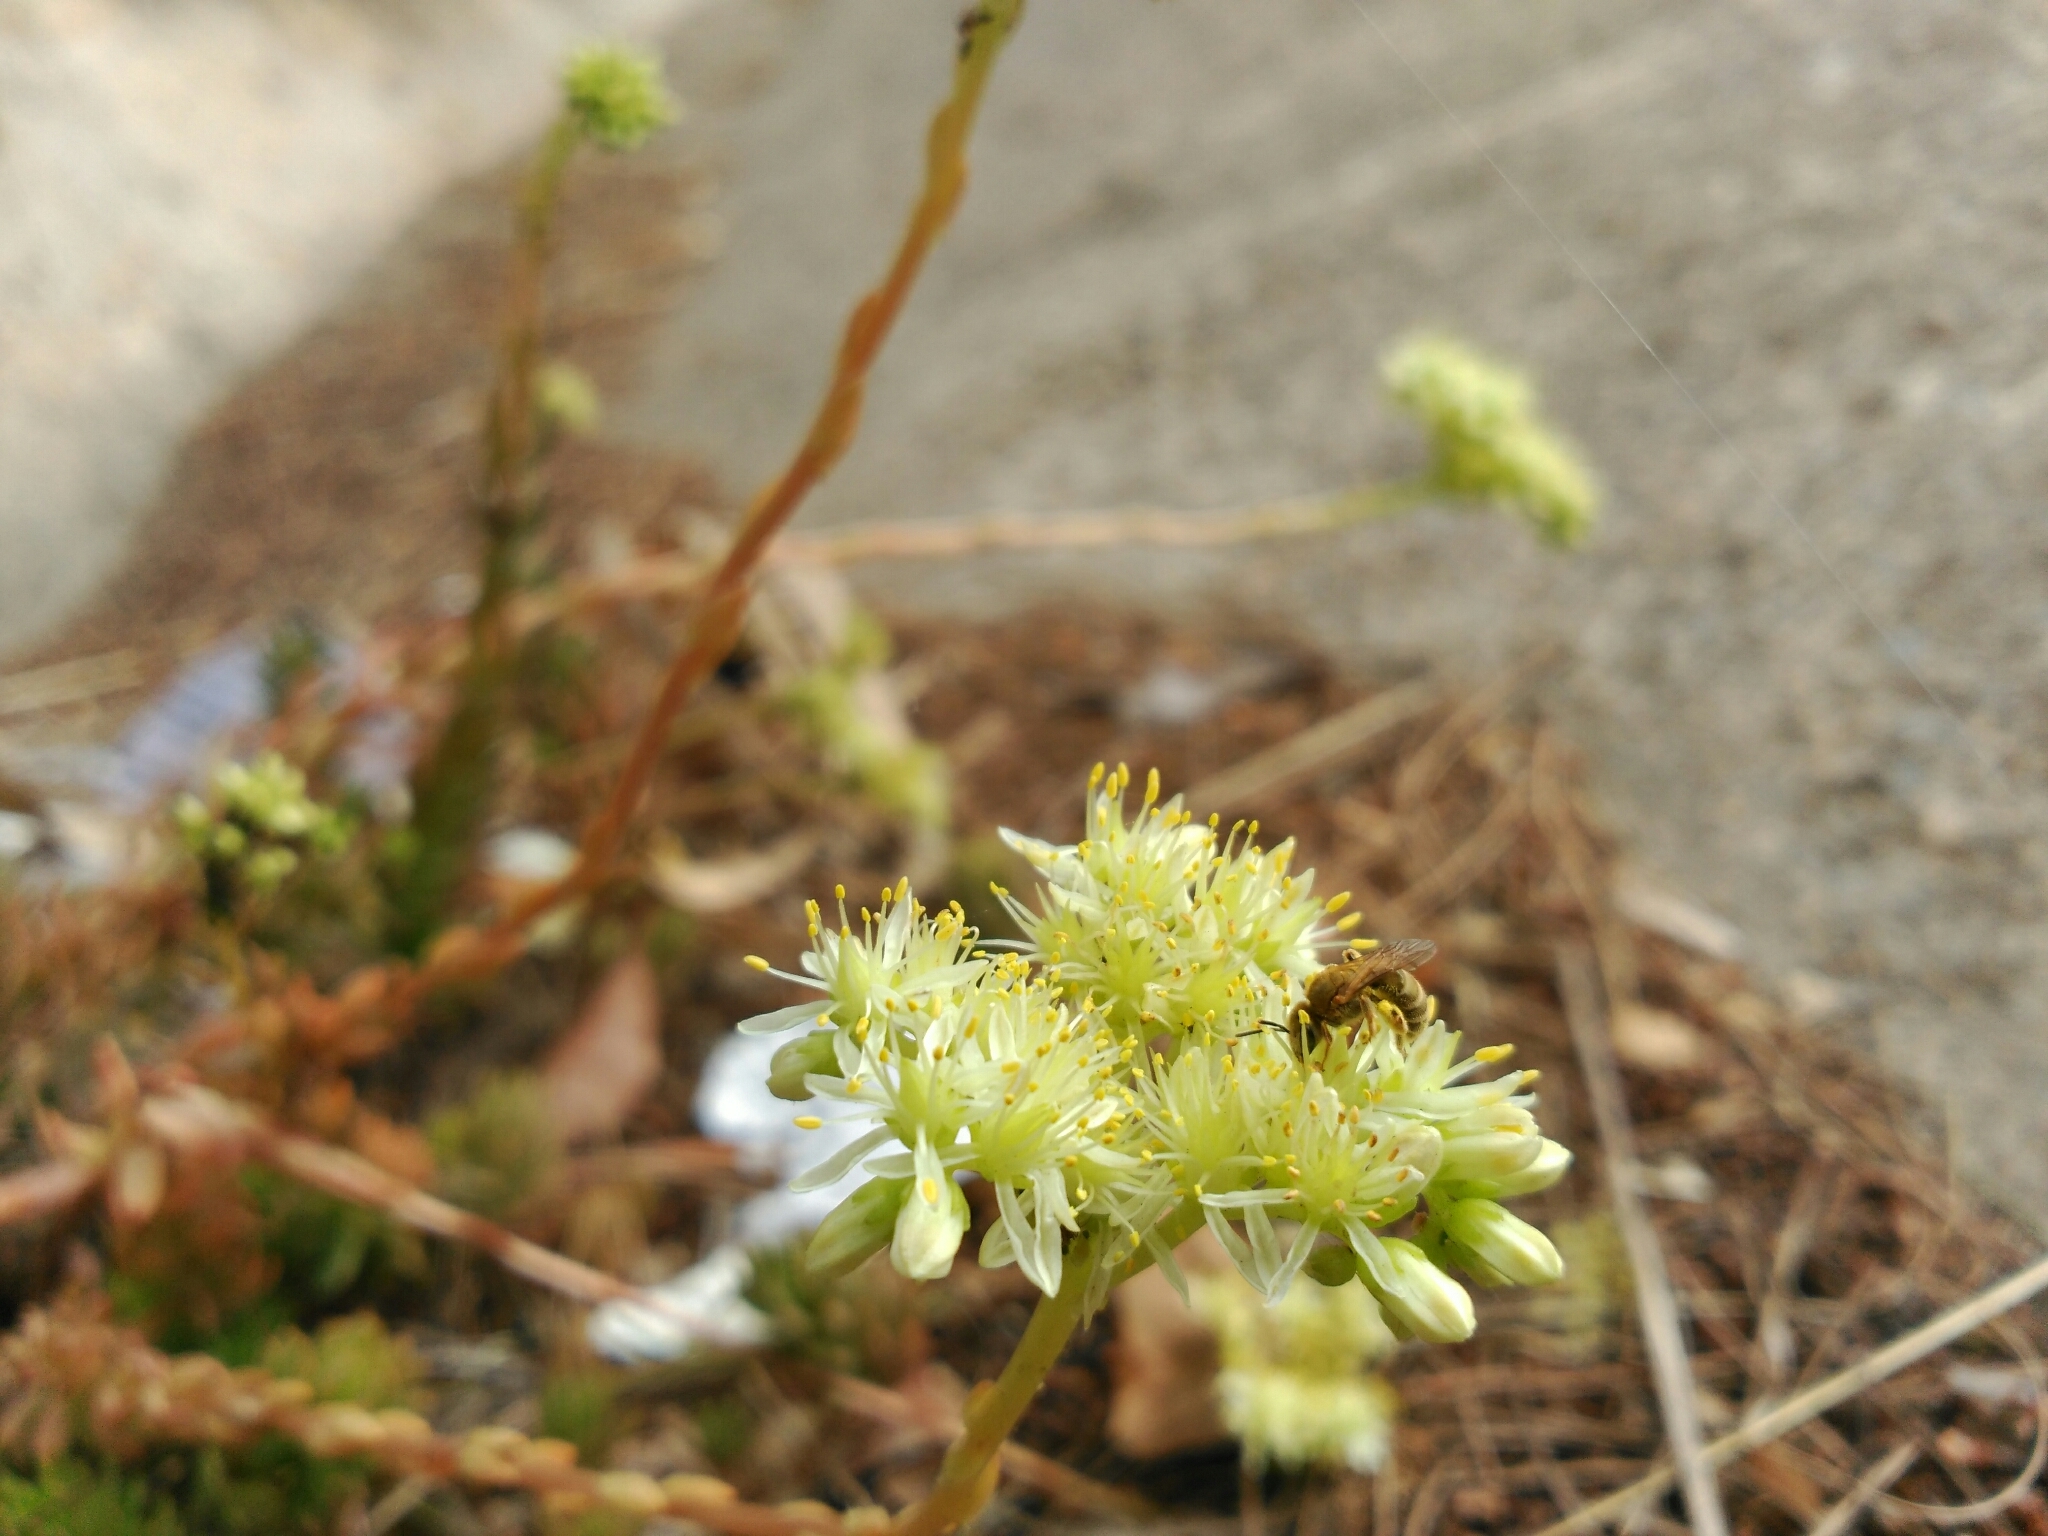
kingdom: Plantae
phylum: Tracheophyta
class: Magnoliopsida
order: Saxifragales
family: Crassulaceae
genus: Petrosedum
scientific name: Petrosedum sediforme
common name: Pale stonecrop
